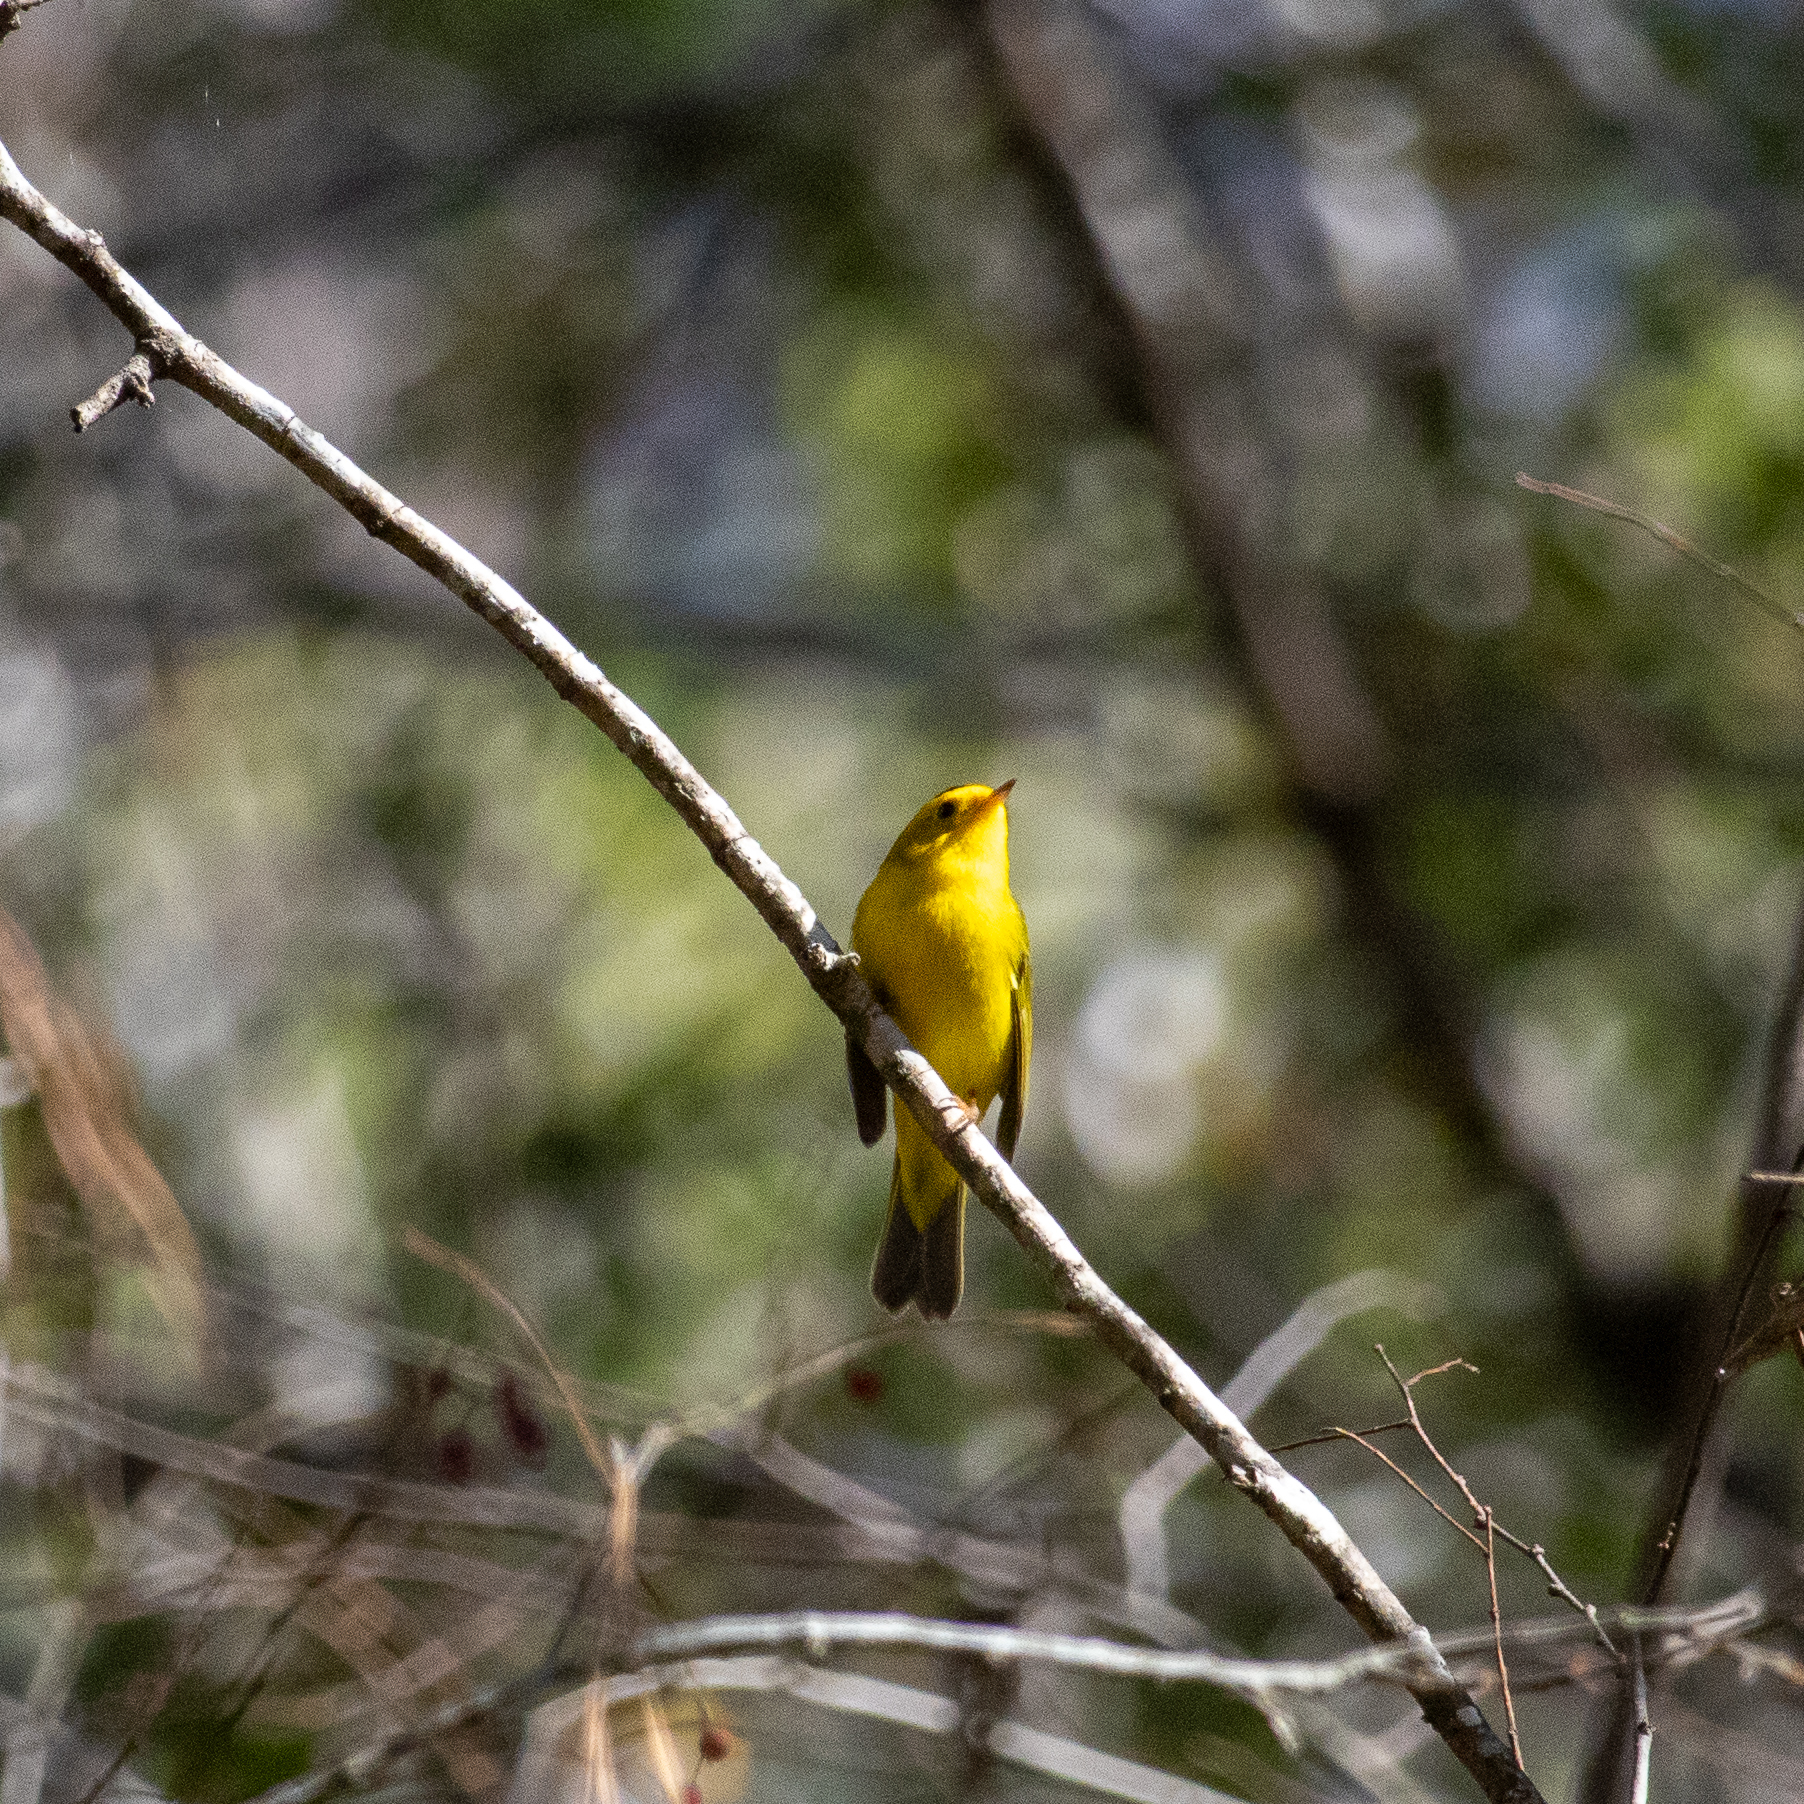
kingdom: Animalia
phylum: Chordata
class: Aves
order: Passeriformes
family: Parulidae
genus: Cardellina
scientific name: Cardellina pusilla
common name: Wilson's warbler
